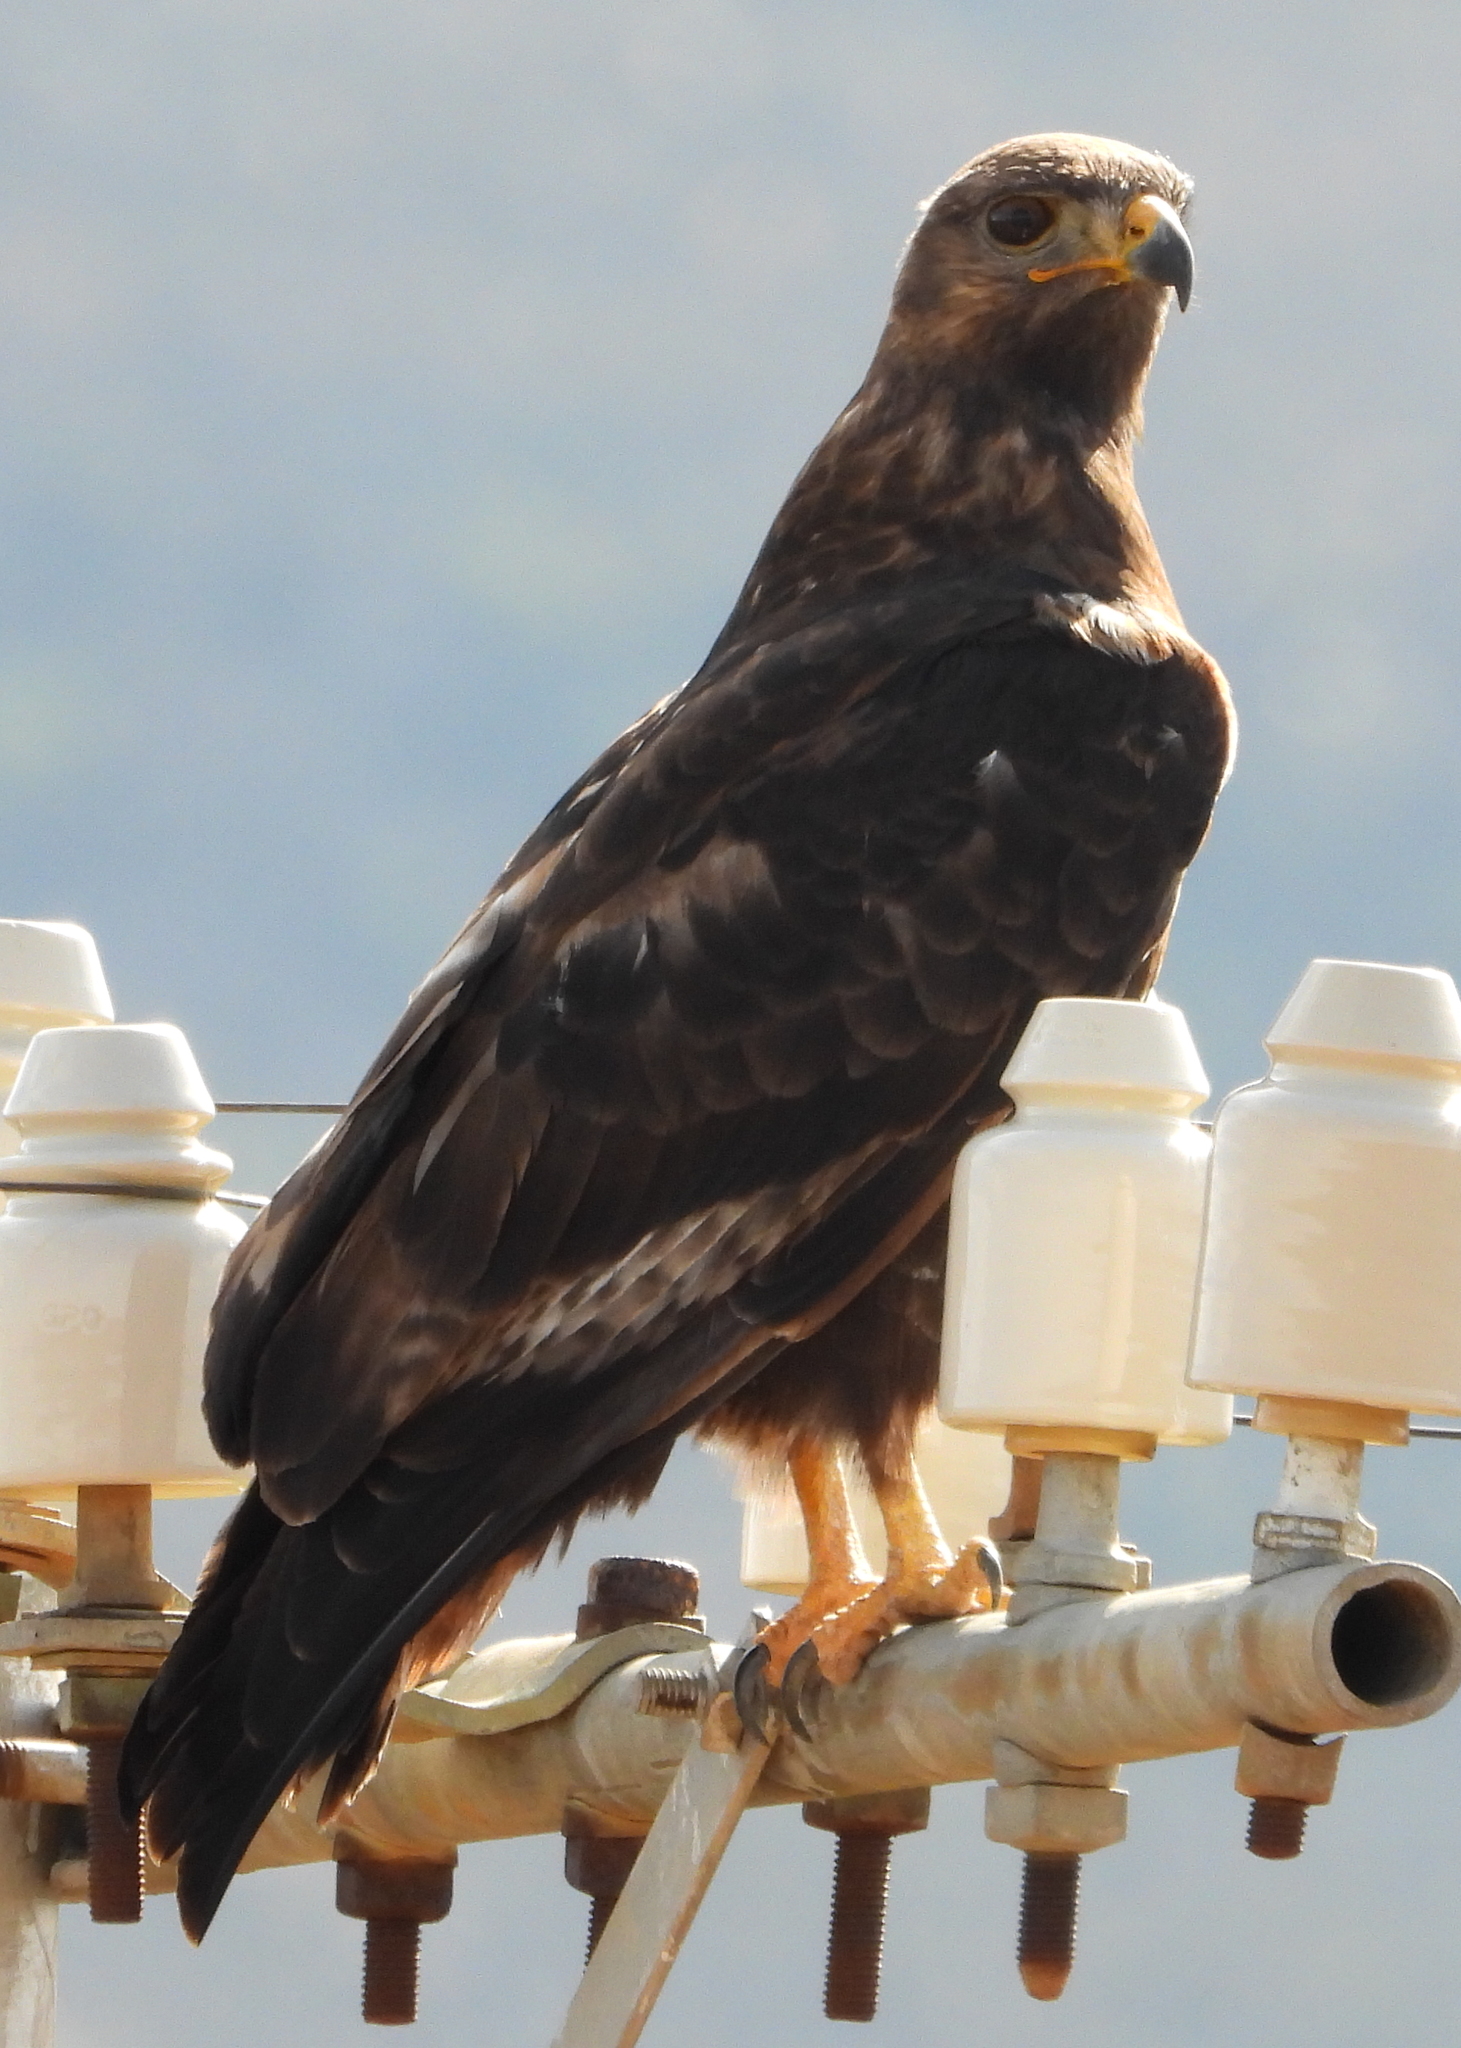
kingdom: Animalia
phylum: Chordata
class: Aves
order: Accipitriformes
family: Accipitridae
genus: Buteo
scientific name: Buteo rufofuscus
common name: Jackal buzzard
